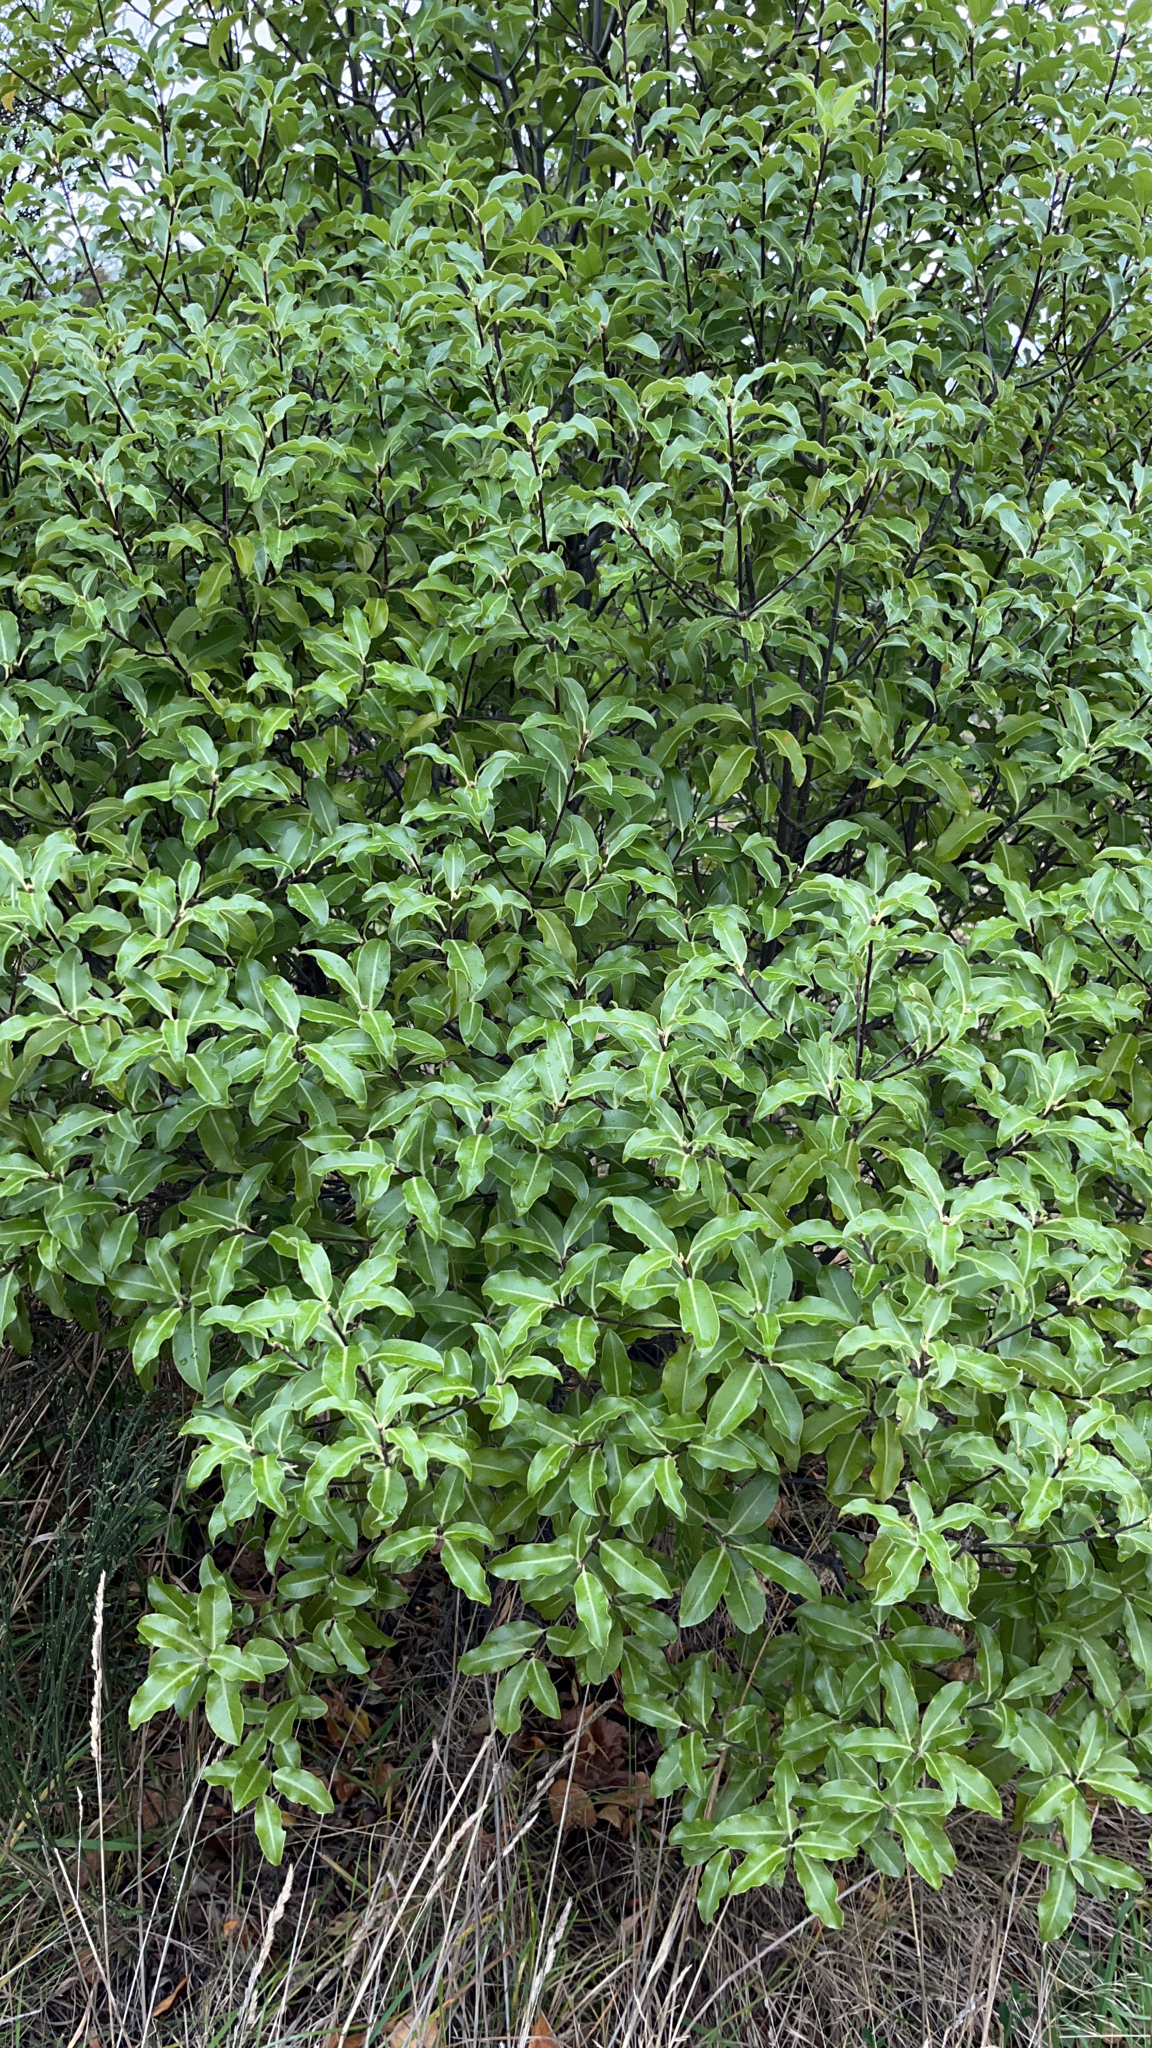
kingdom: Plantae
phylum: Tracheophyta
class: Magnoliopsida
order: Apiales
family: Pittosporaceae
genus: Pittosporum
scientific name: Pittosporum tenuifolium
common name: Kohuhu
